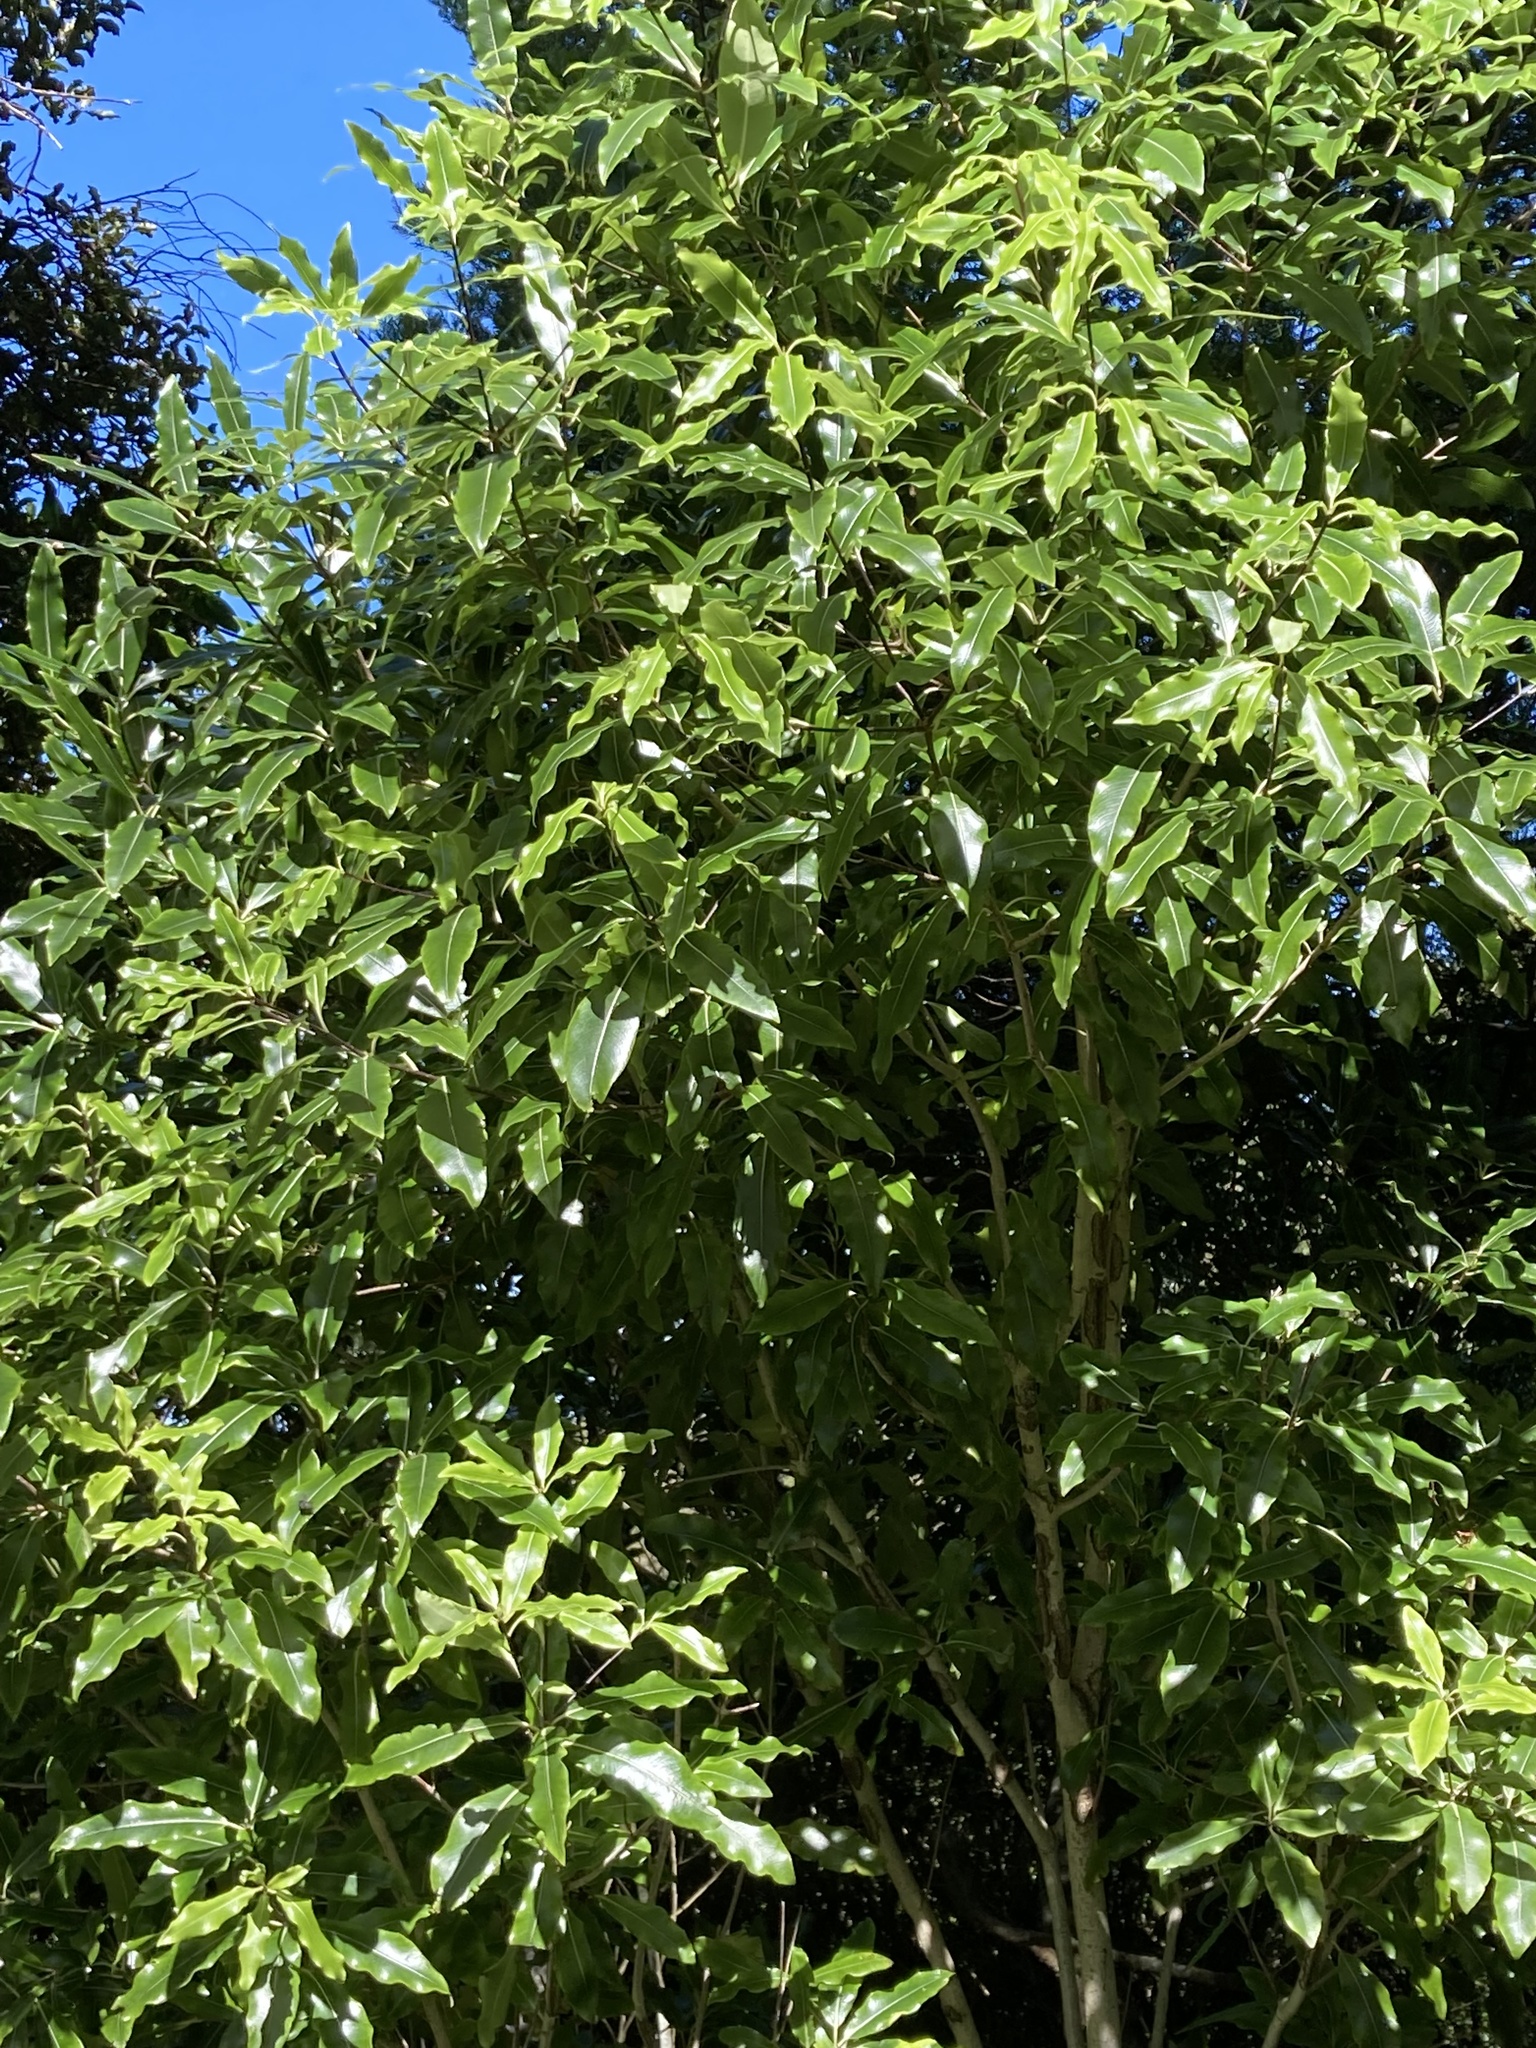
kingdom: Plantae
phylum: Tracheophyta
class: Magnoliopsida
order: Apiales
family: Pittosporaceae
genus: Pittosporum
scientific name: Pittosporum eugenioides
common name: Lemonwood
